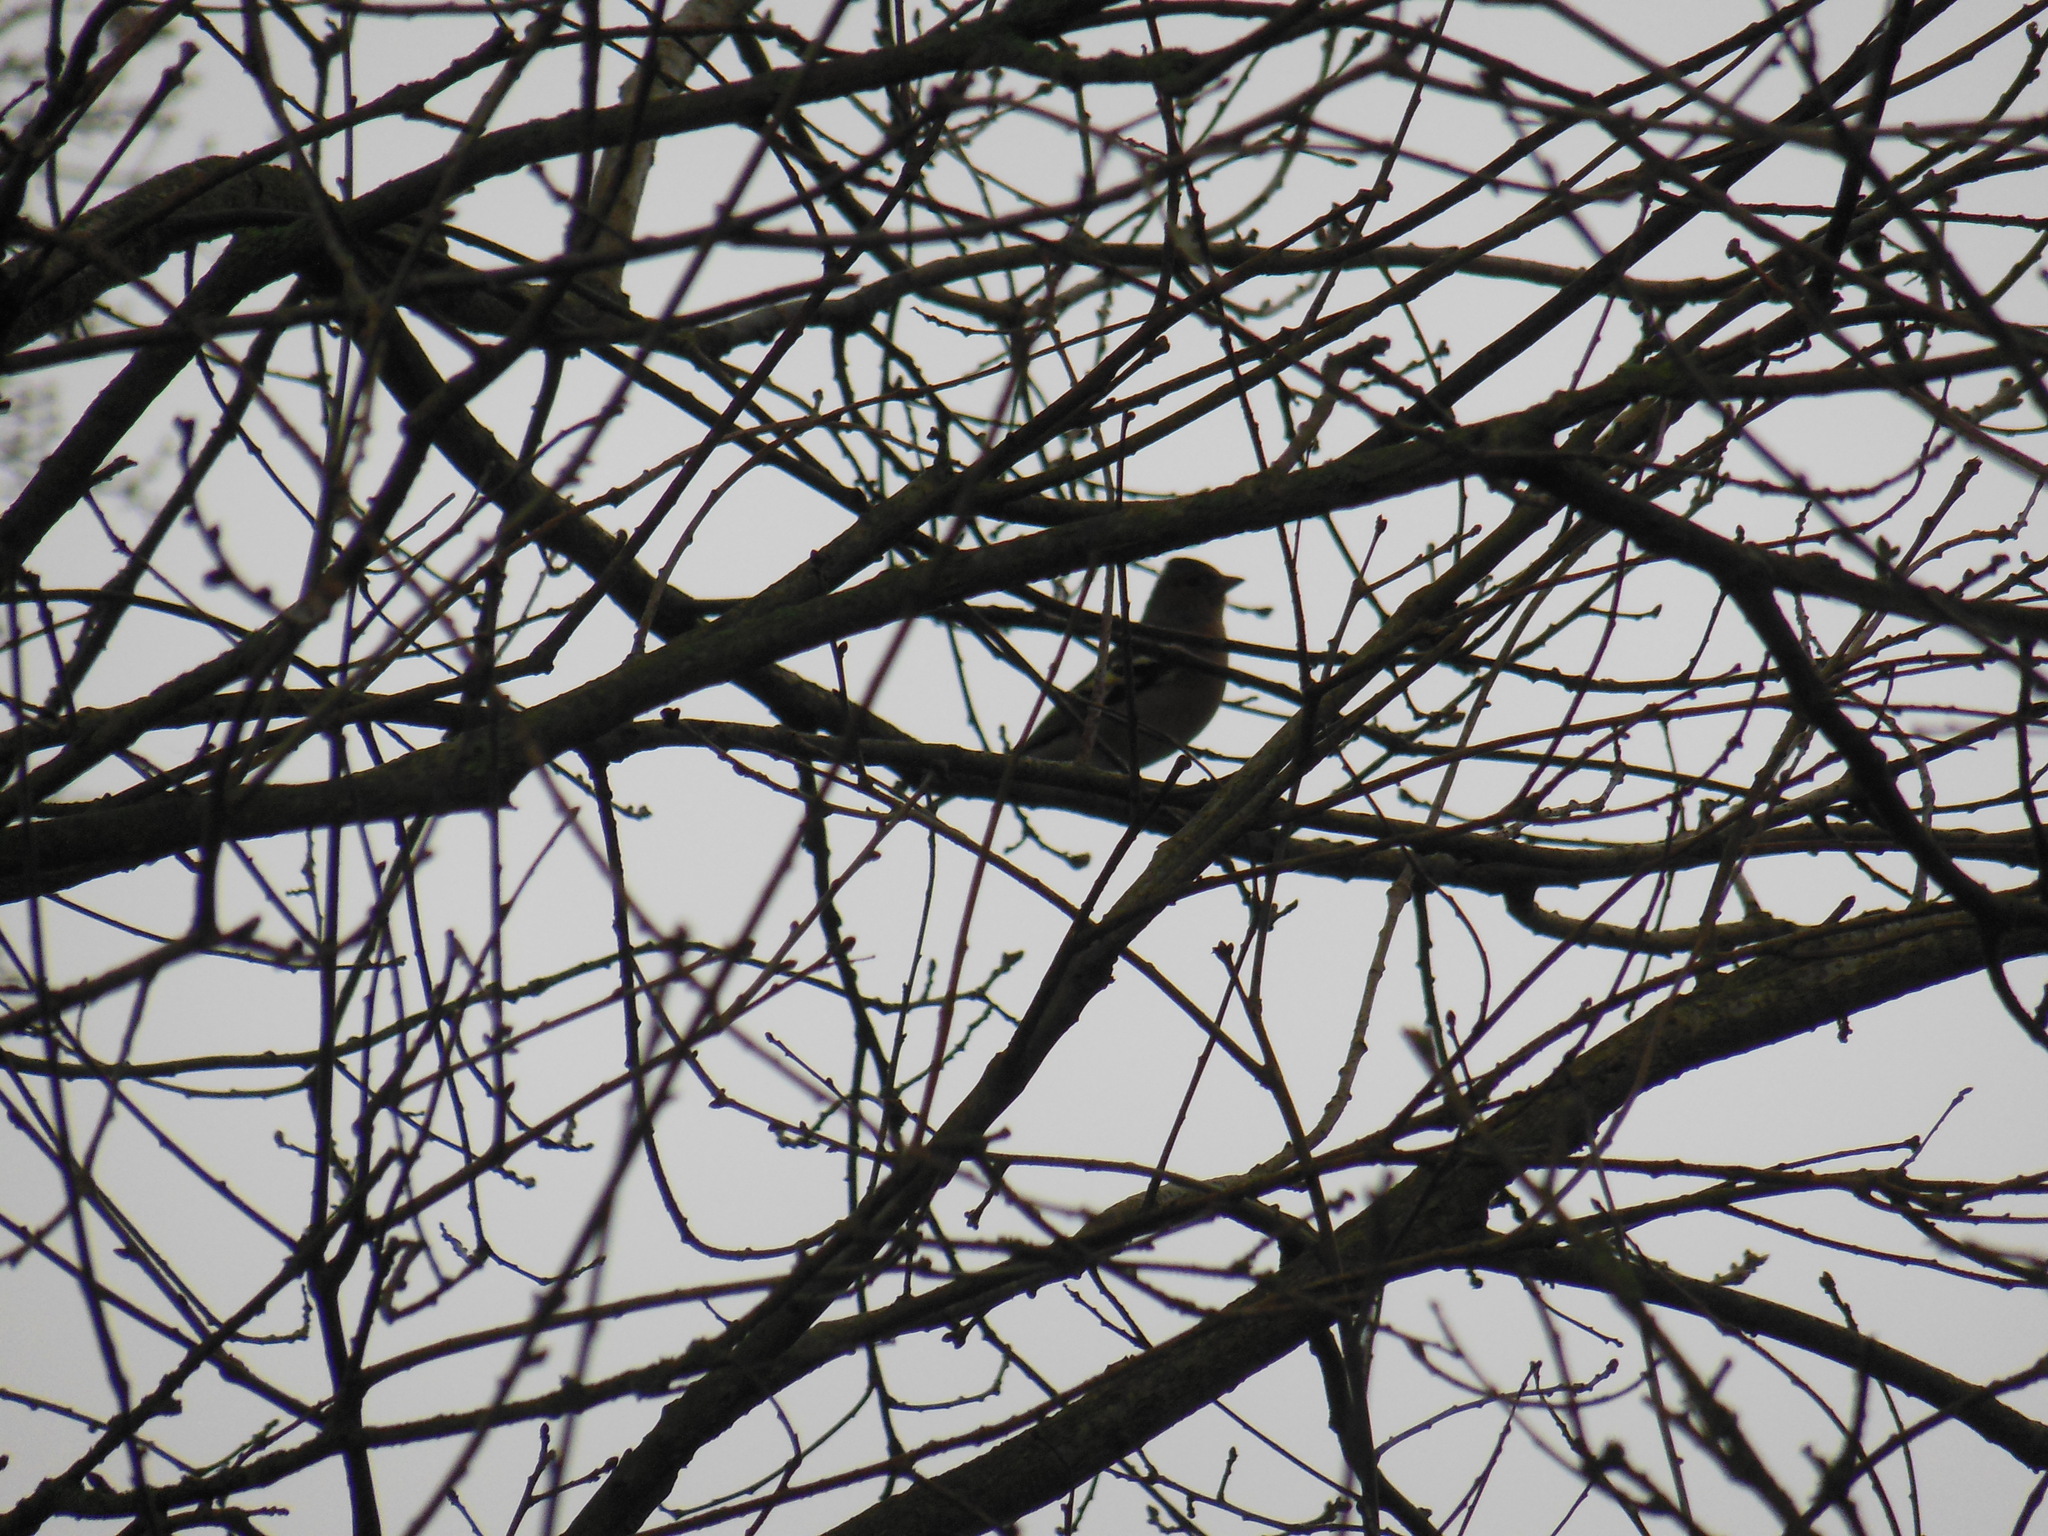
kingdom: Animalia
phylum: Chordata
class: Aves
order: Passeriformes
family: Fringillidae
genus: Fringilla
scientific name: Fringilla coelebs
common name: Common chaffinch
